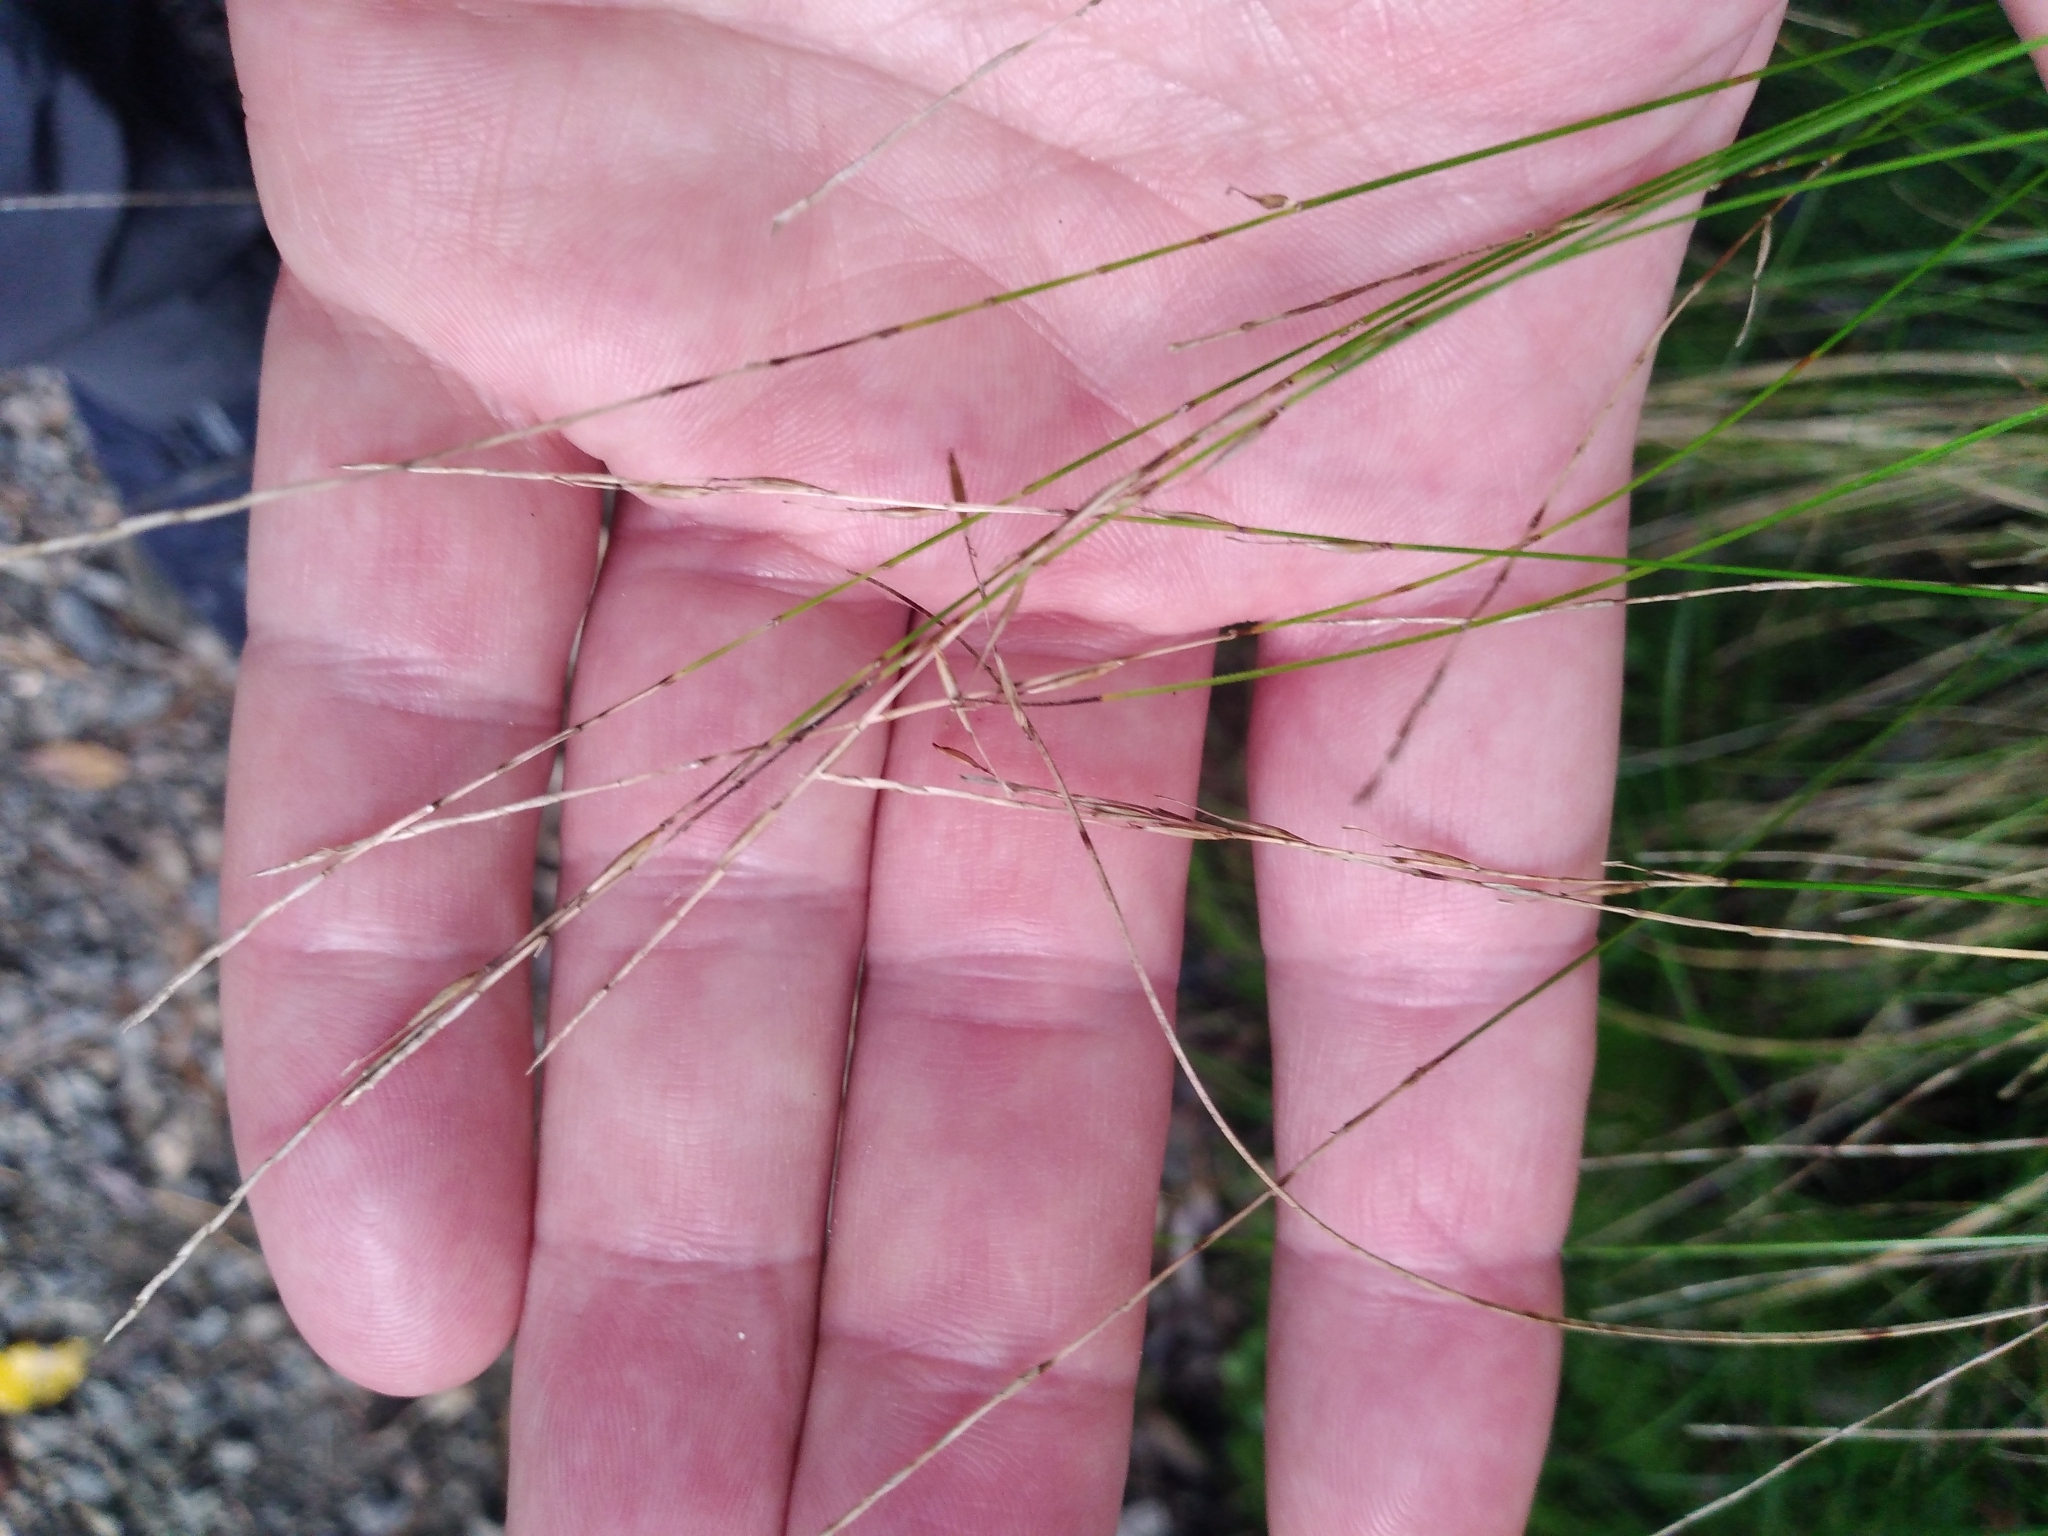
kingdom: Plantae
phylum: Tracheophyta
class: Liliopsida
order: Poales
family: Cyperaceae
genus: Carex
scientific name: Carex banksiana
